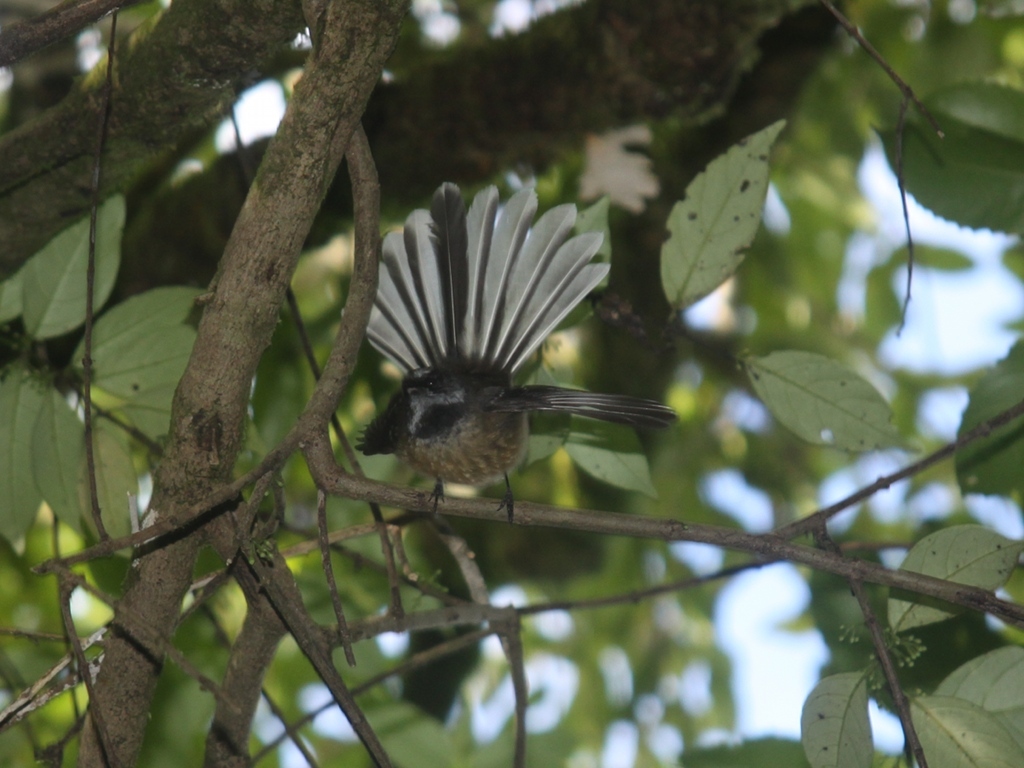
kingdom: Animalia
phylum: Chordata
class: Aves
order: Passeriformes
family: Rhipiduridae
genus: Rhipidura
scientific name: Rhipidura fuliginosa
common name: New zealand fantail
